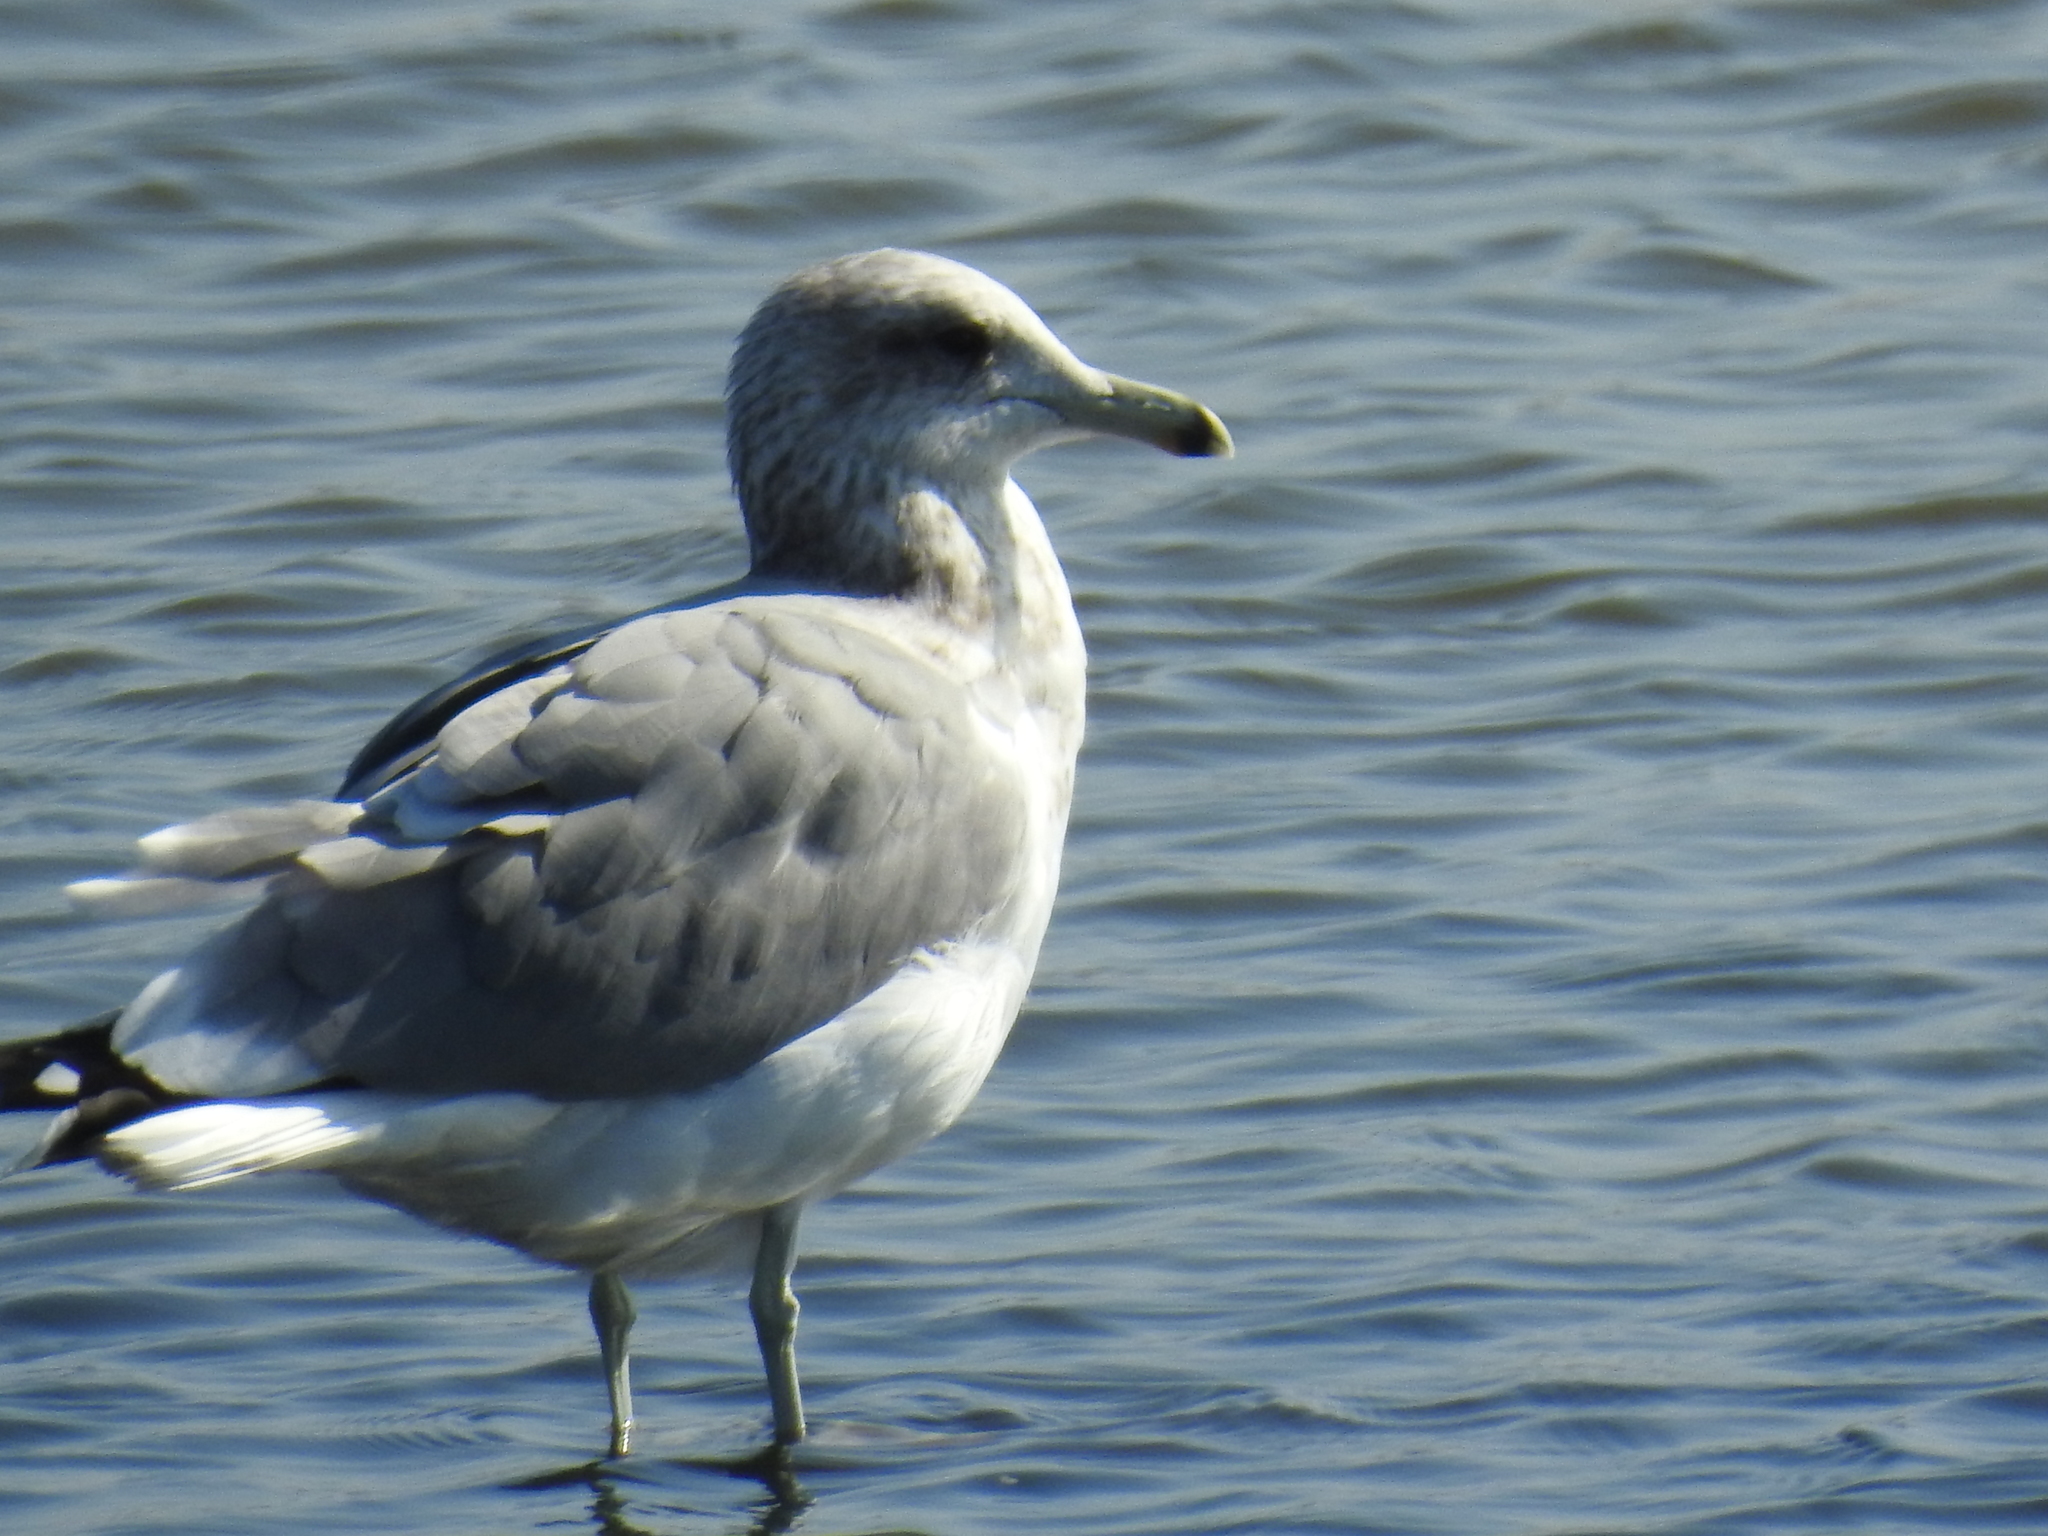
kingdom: Animalia
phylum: Chordata
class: Aves
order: Charadriiformes
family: Laridae
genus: Larus
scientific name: Larus californicus
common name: California gull
